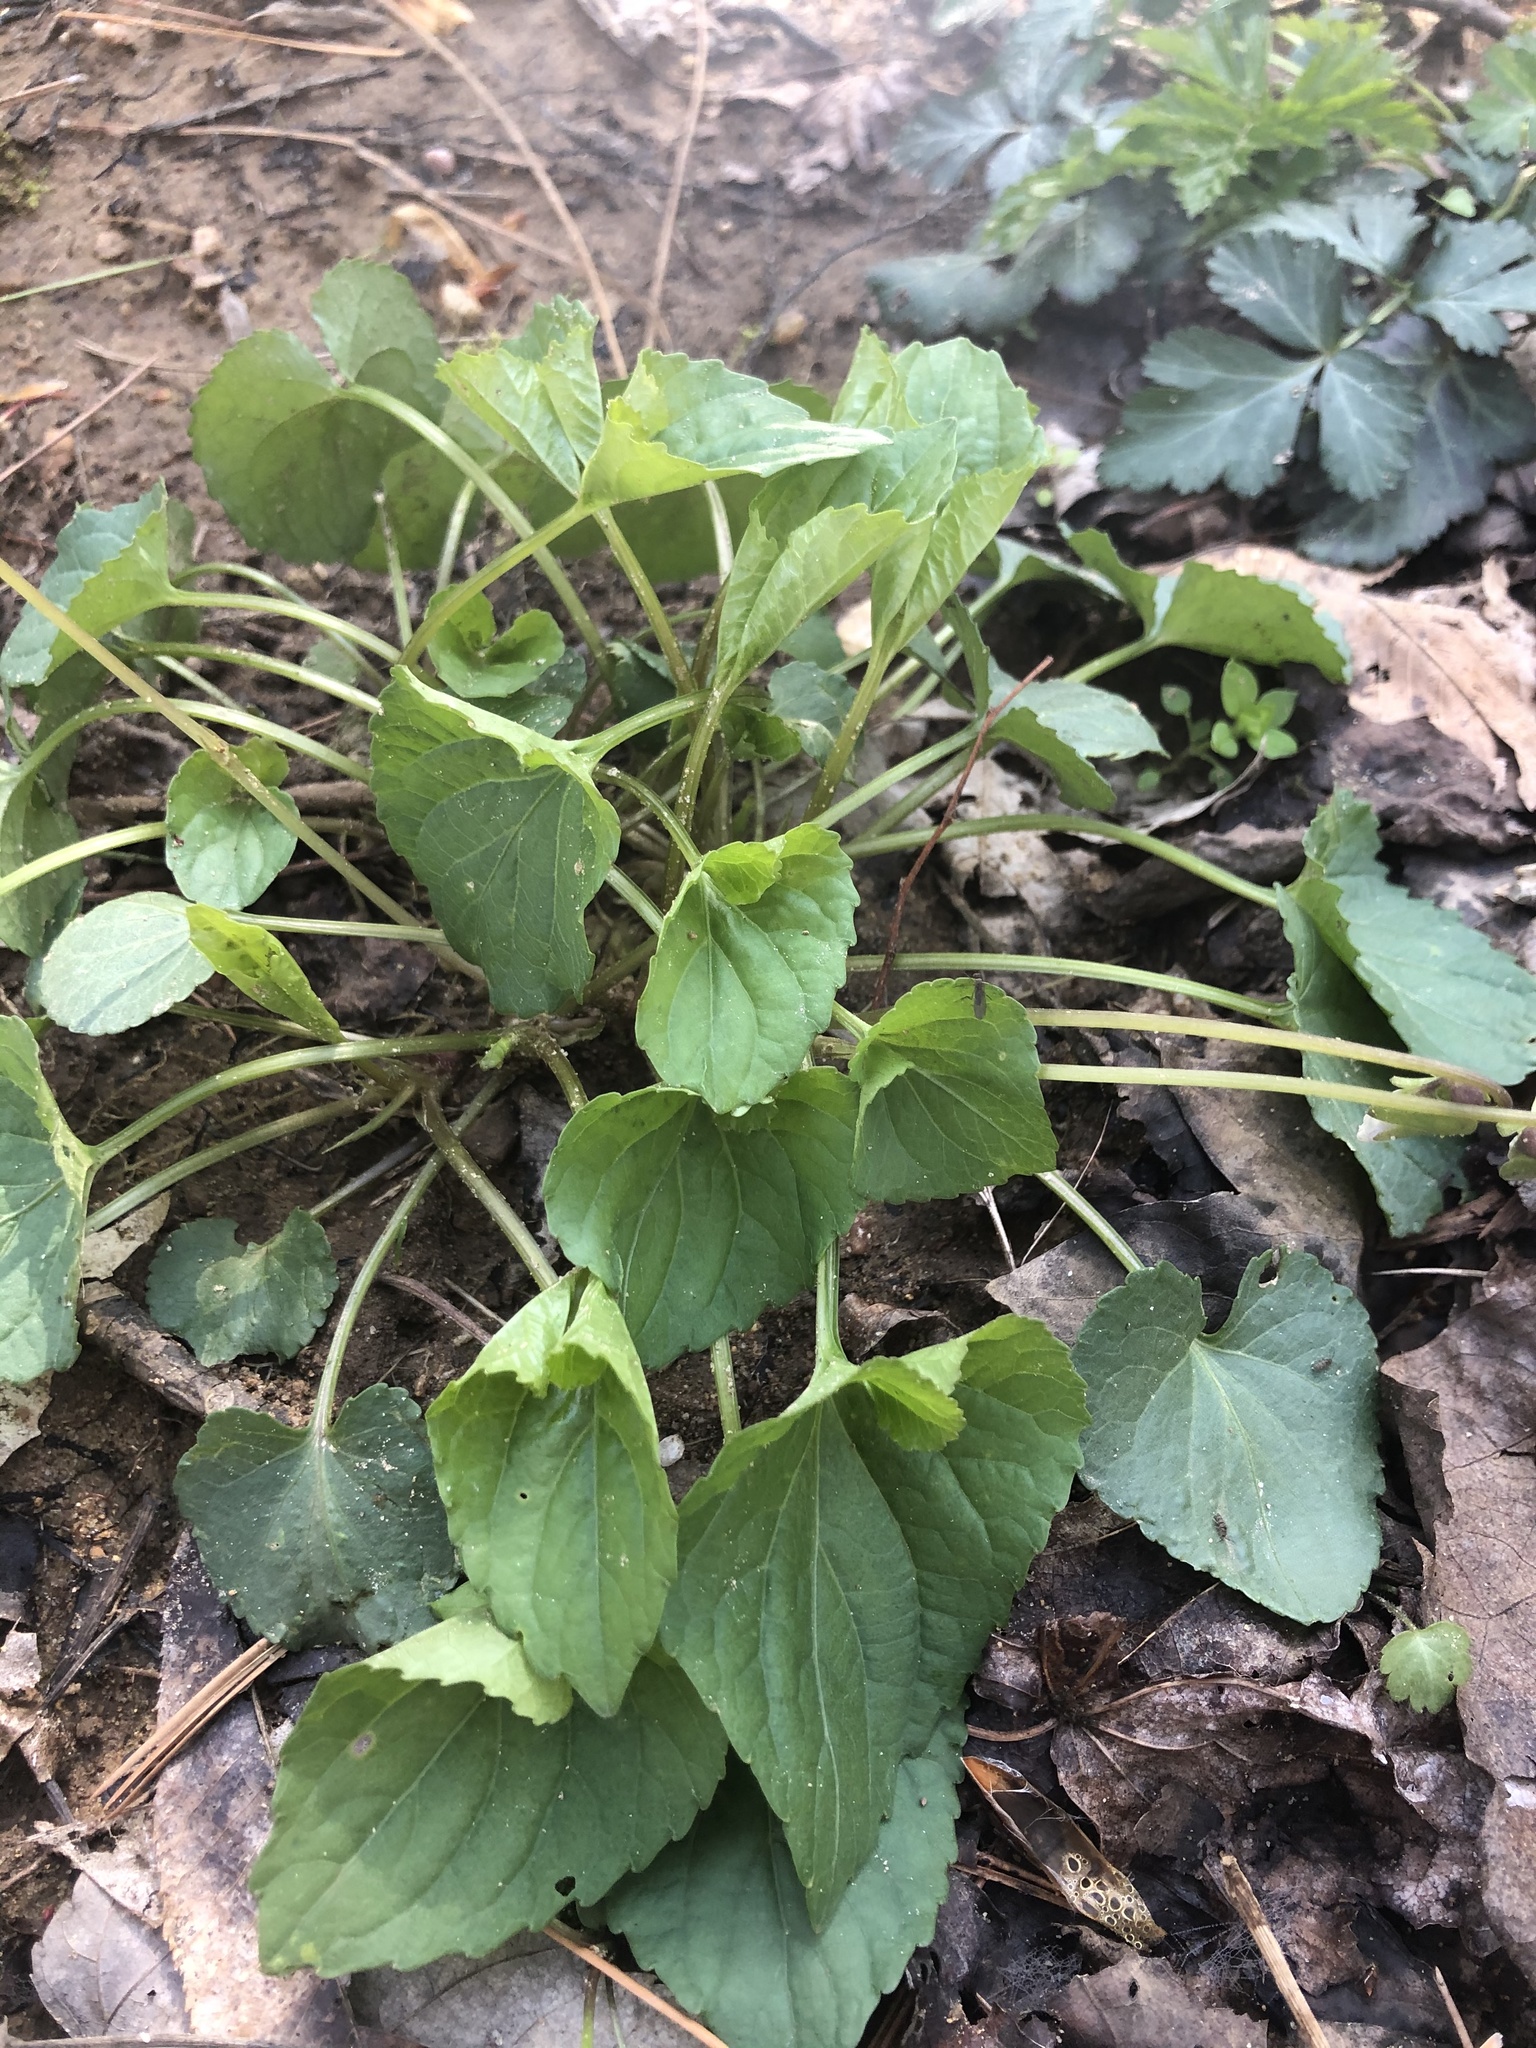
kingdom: Plantae
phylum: Tracheophyta
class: Magnoliopsida
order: Malpighiales
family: Violaceae
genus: Viola
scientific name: Viola sororia
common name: Dooryard violet
